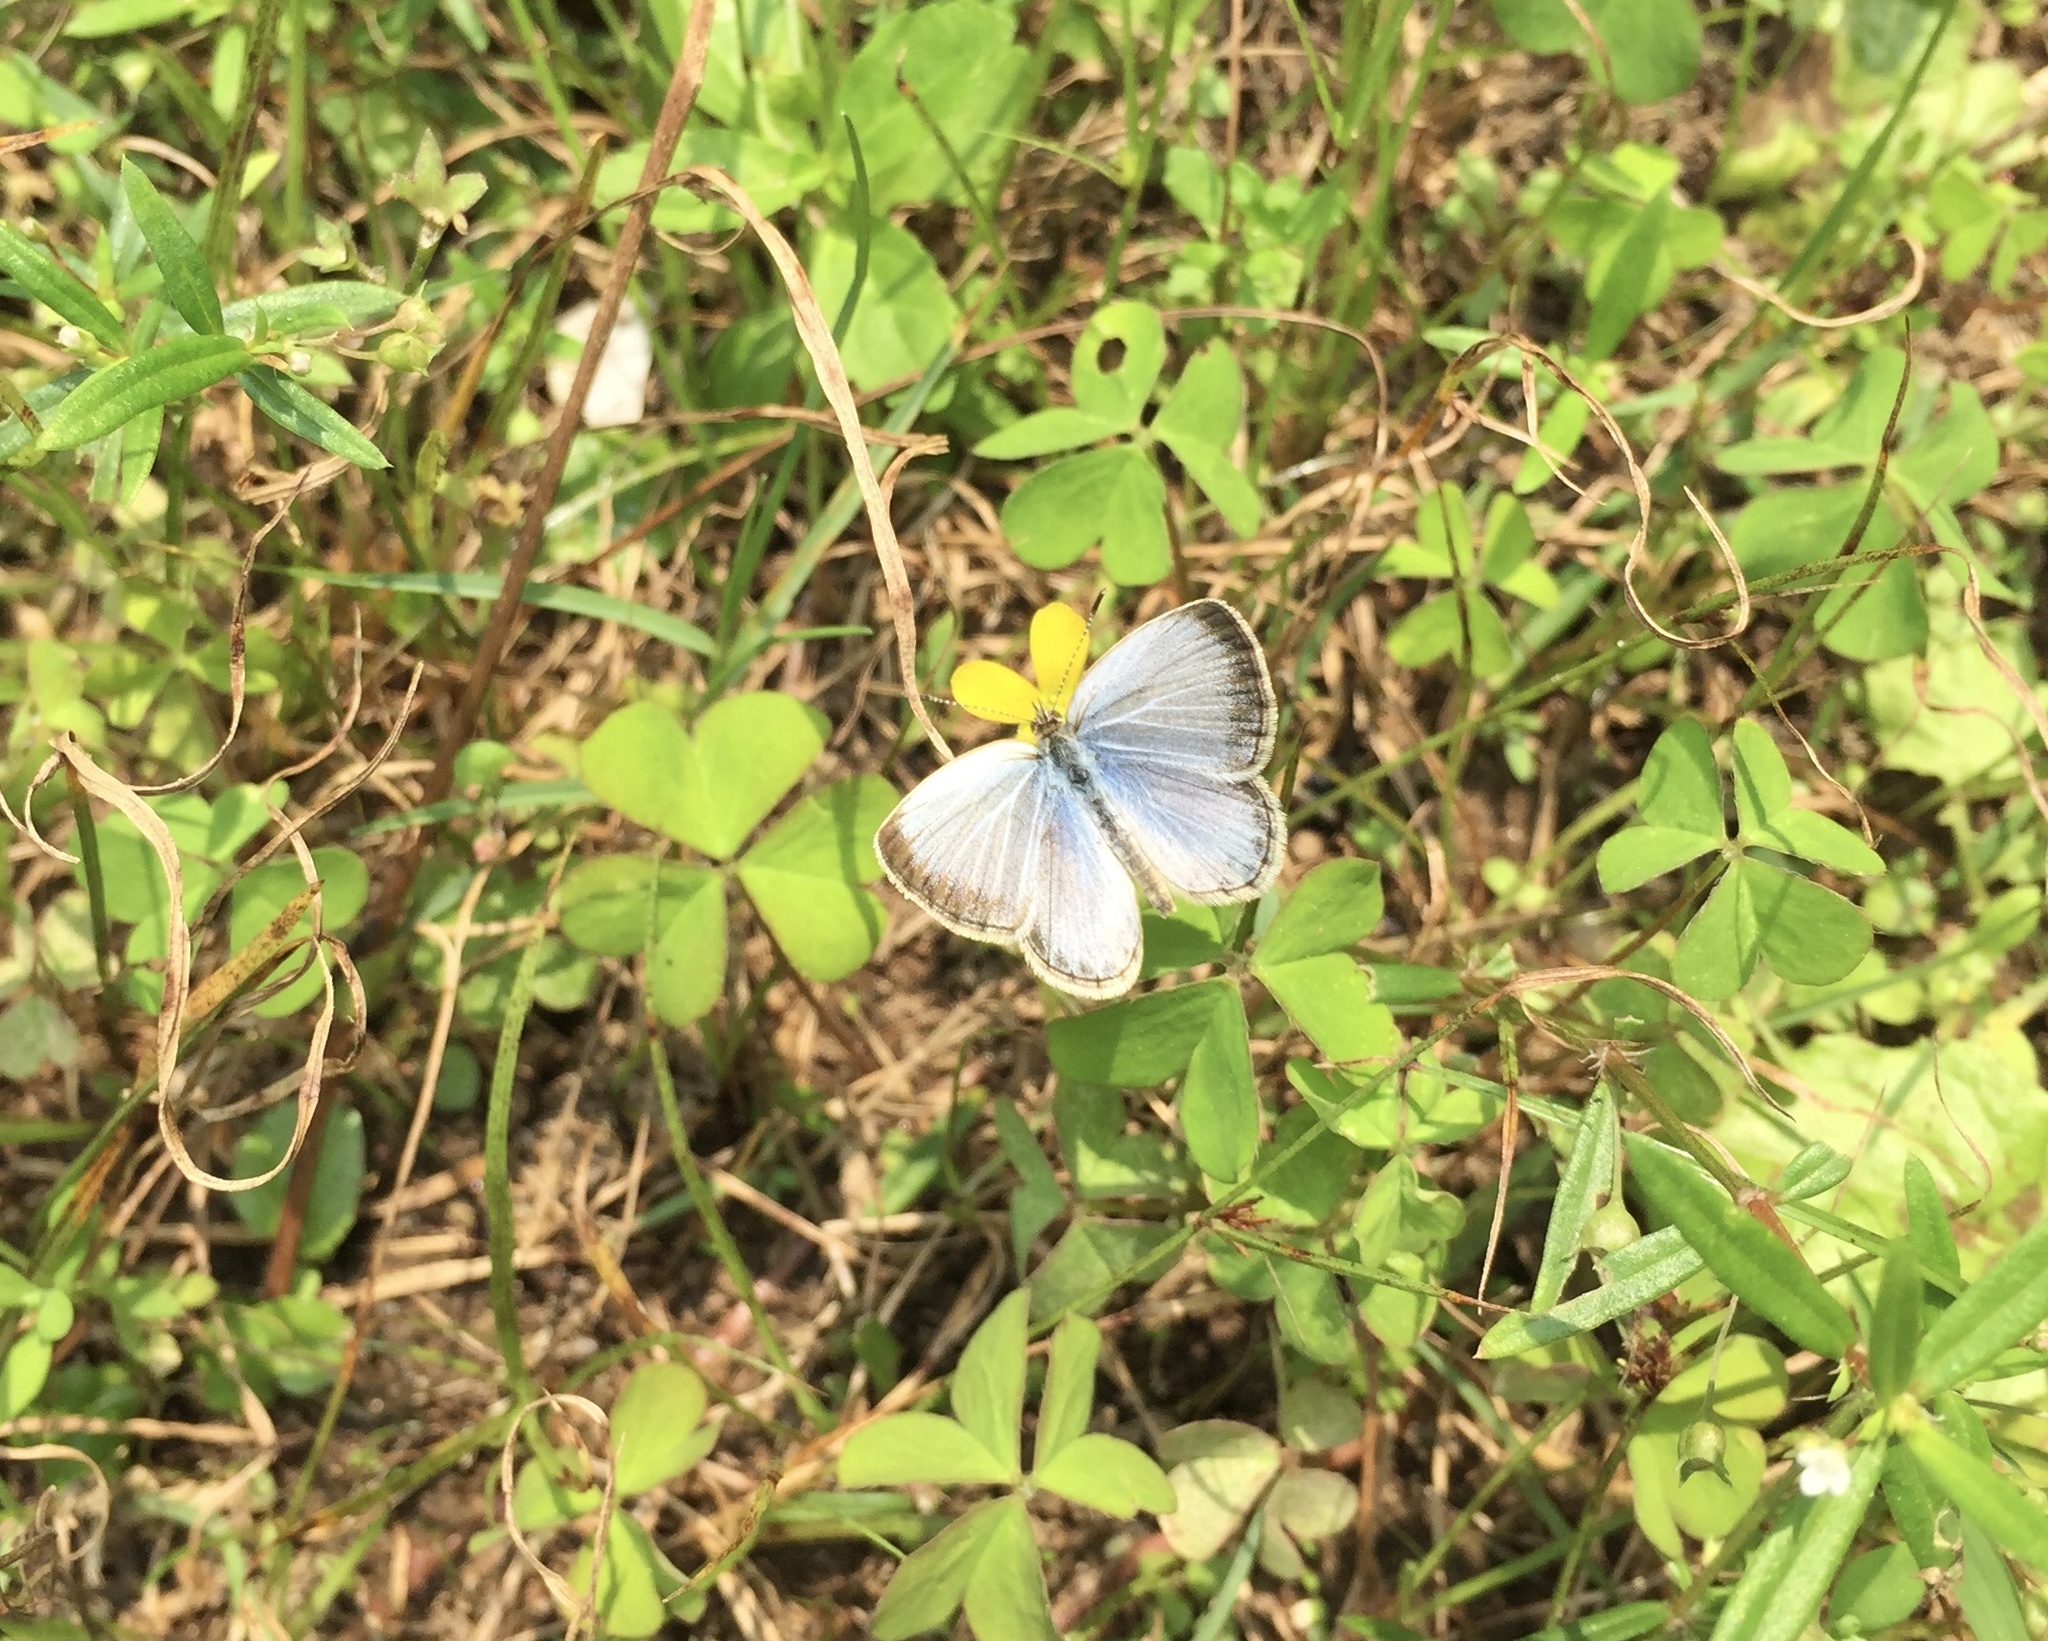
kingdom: Animalia
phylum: Arthropoda
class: Insecta
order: Lepidoptera
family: Lycaenidae
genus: Pseudozizeeria
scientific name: Pseudozizeeria maha
